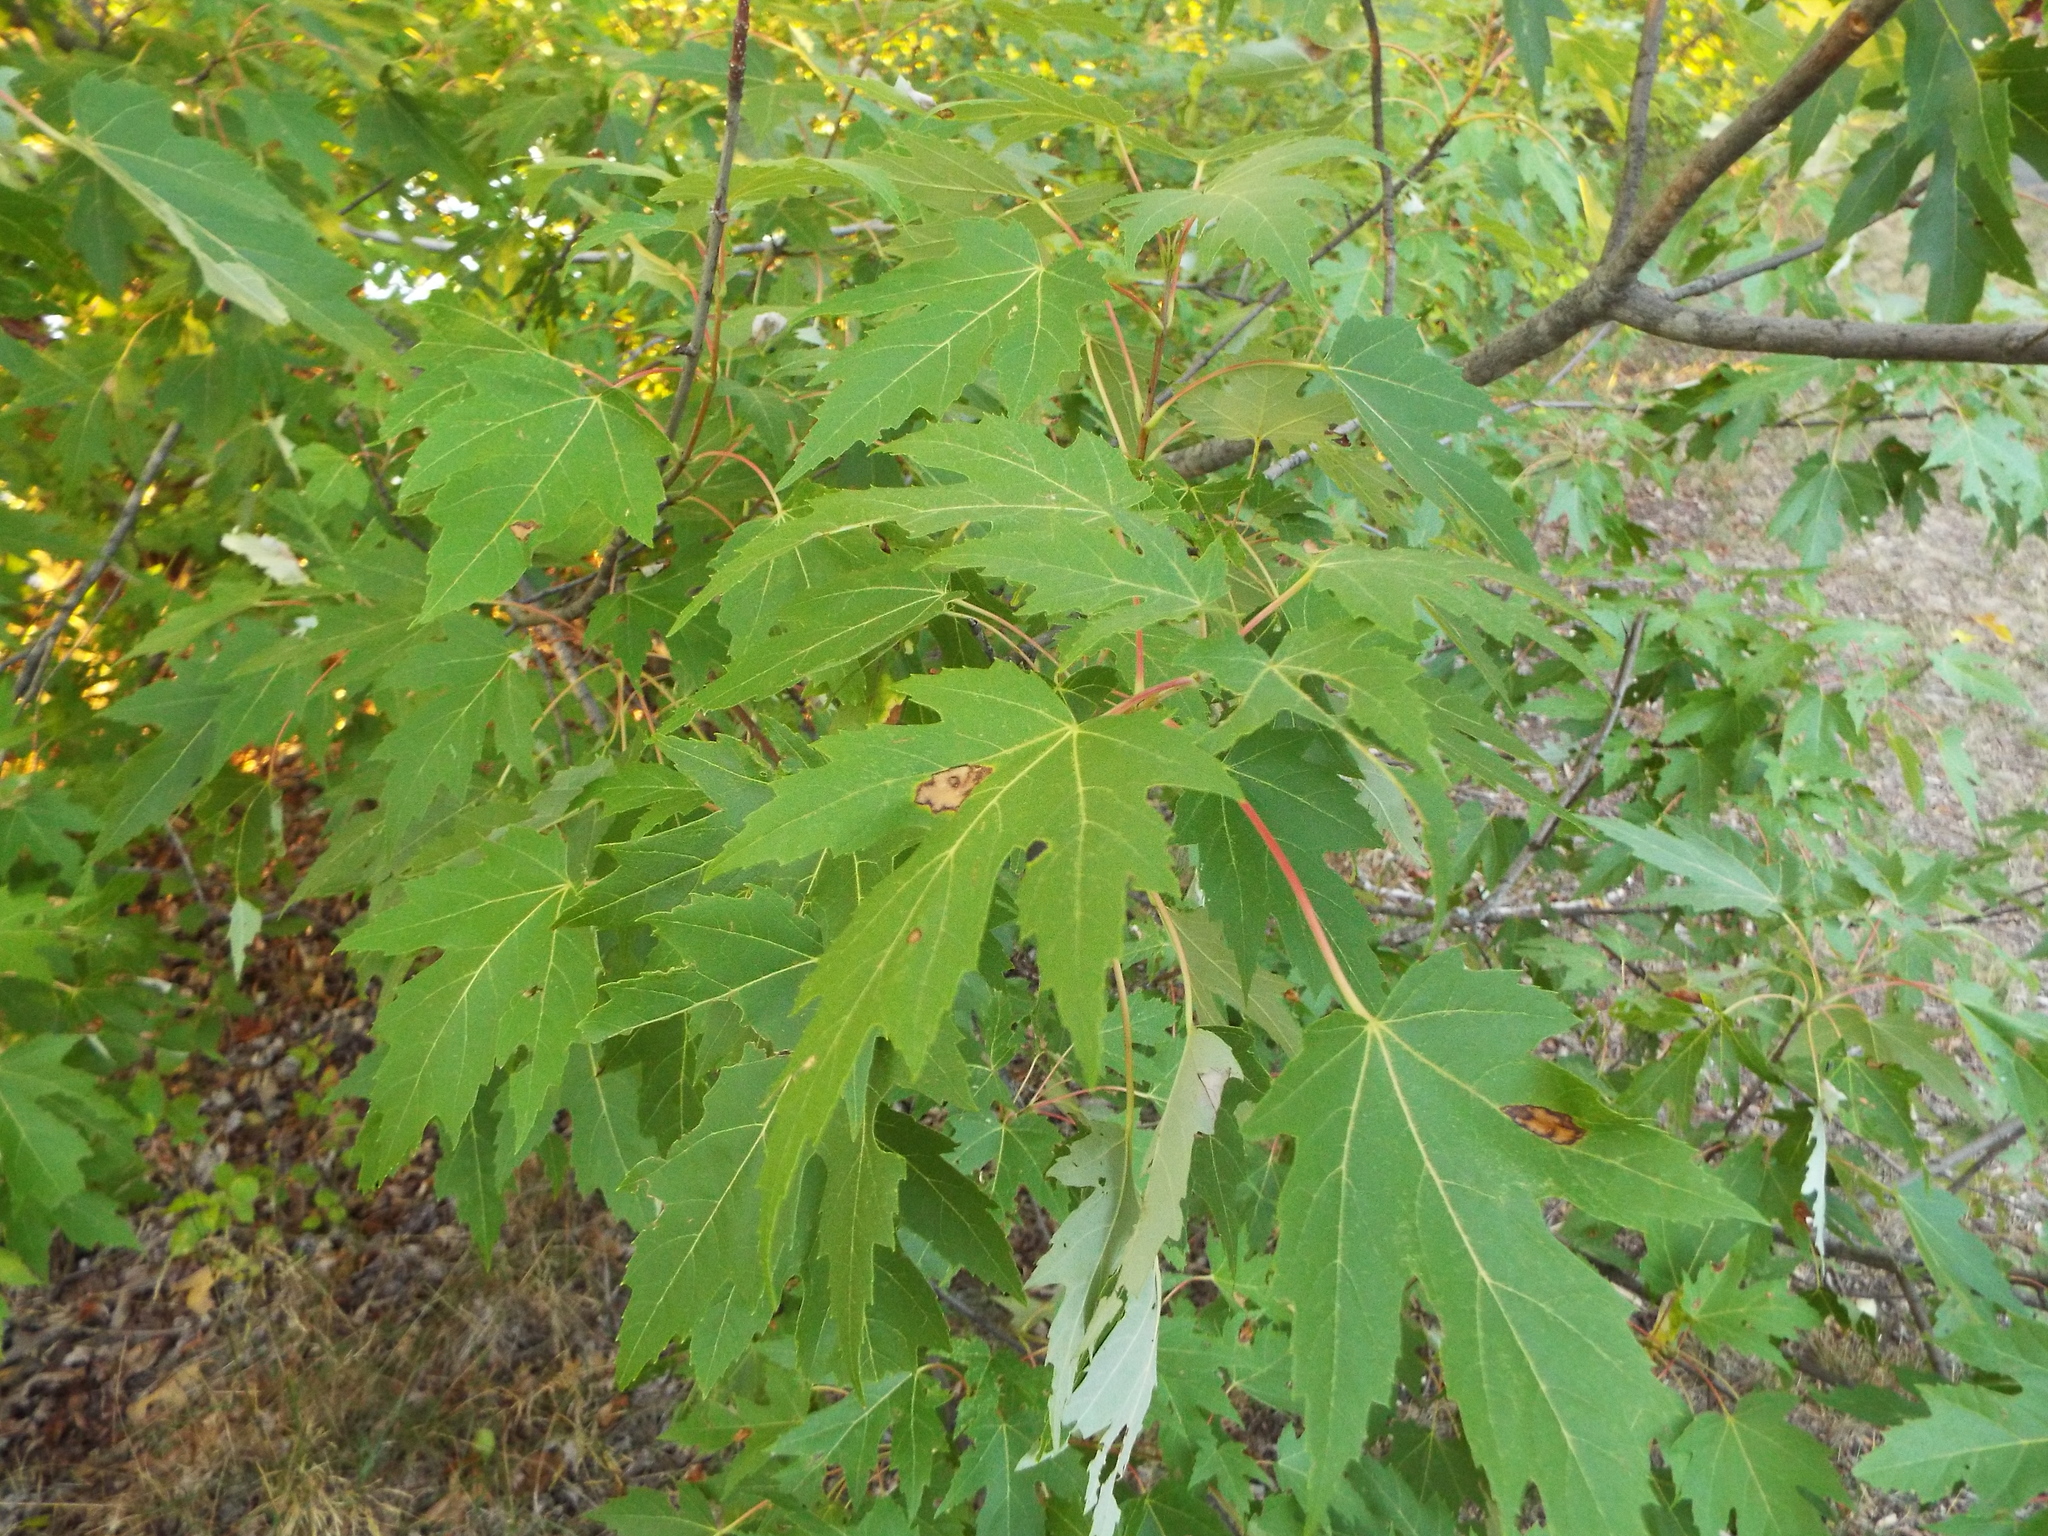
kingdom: Plantae
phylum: Tracheophyta
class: Magnoliopsida
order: Sapindales
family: Sapindaceae
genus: Acer
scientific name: Acer saccharinum
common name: Silver maple
